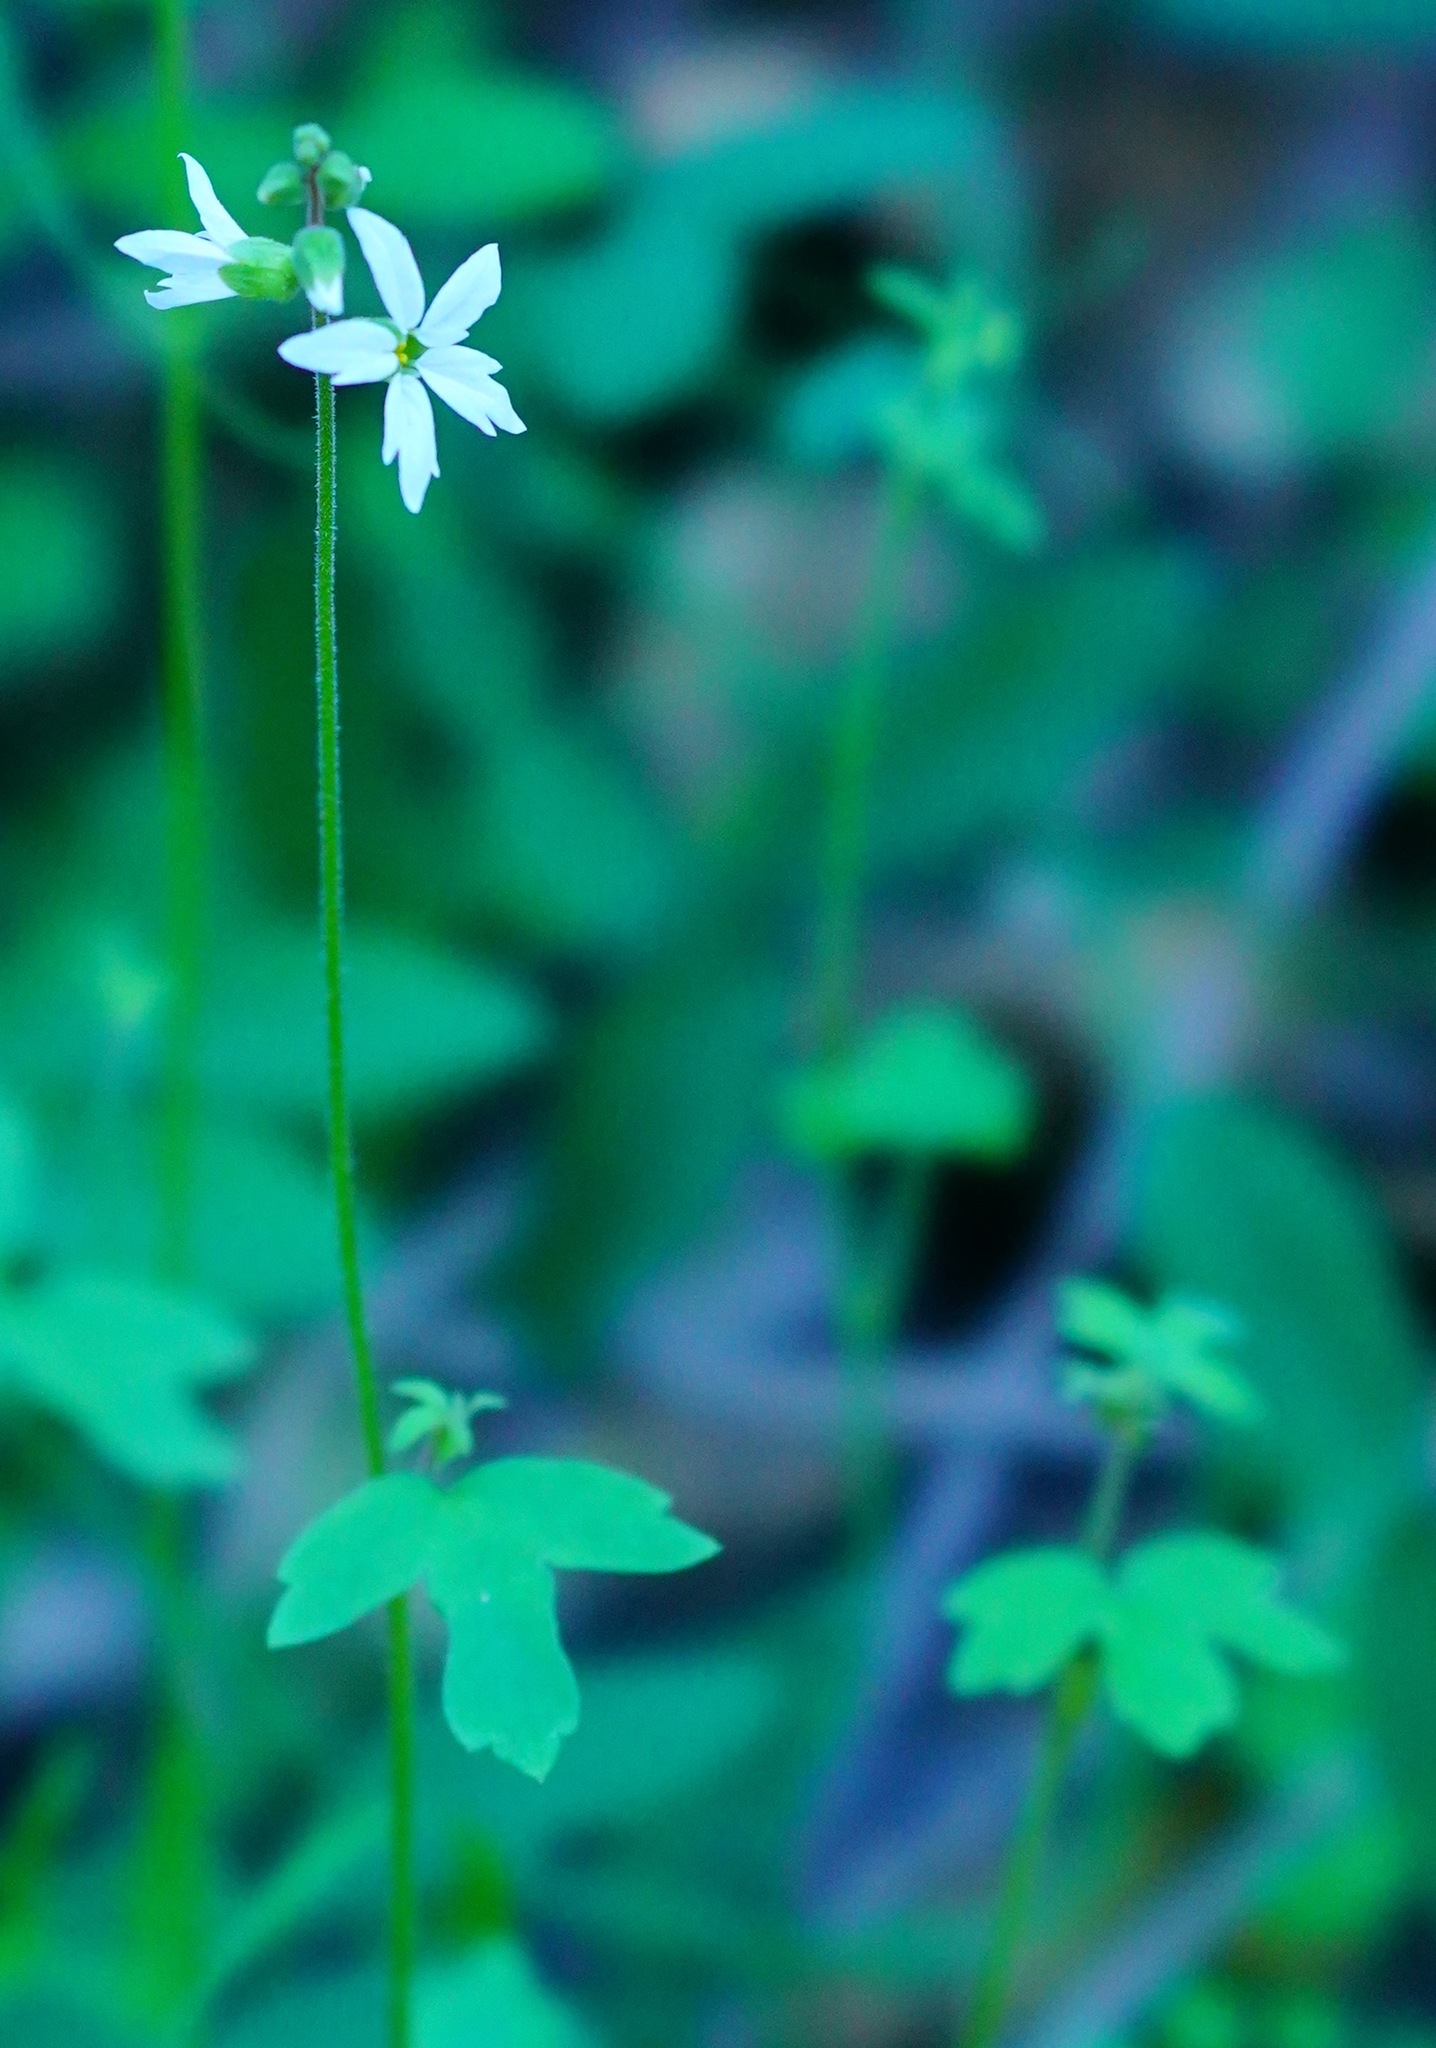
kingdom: Plantae
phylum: Tracheophyta
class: Magnoliopsida
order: Saxifragales
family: Saxifragaceae
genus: Lithophragma
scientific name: Lithophragma heterophyllum
